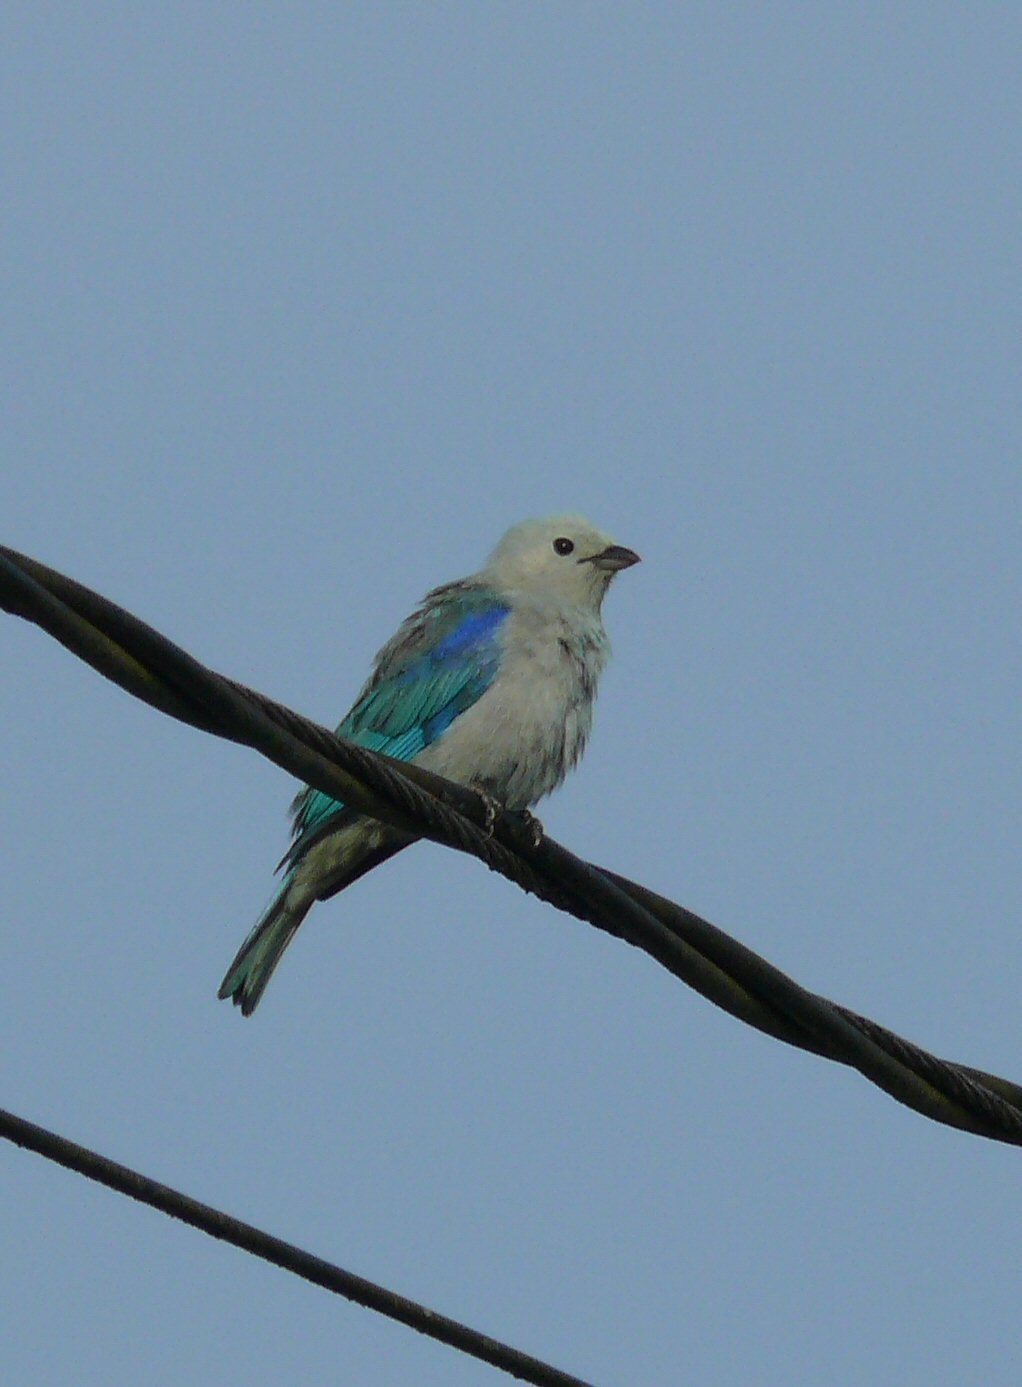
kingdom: Animalia
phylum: Chordata
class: Aves
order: Passeriformes
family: Thraupidae
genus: Thraupis
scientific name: Thraupis episcopus
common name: Blue-grey tanager
